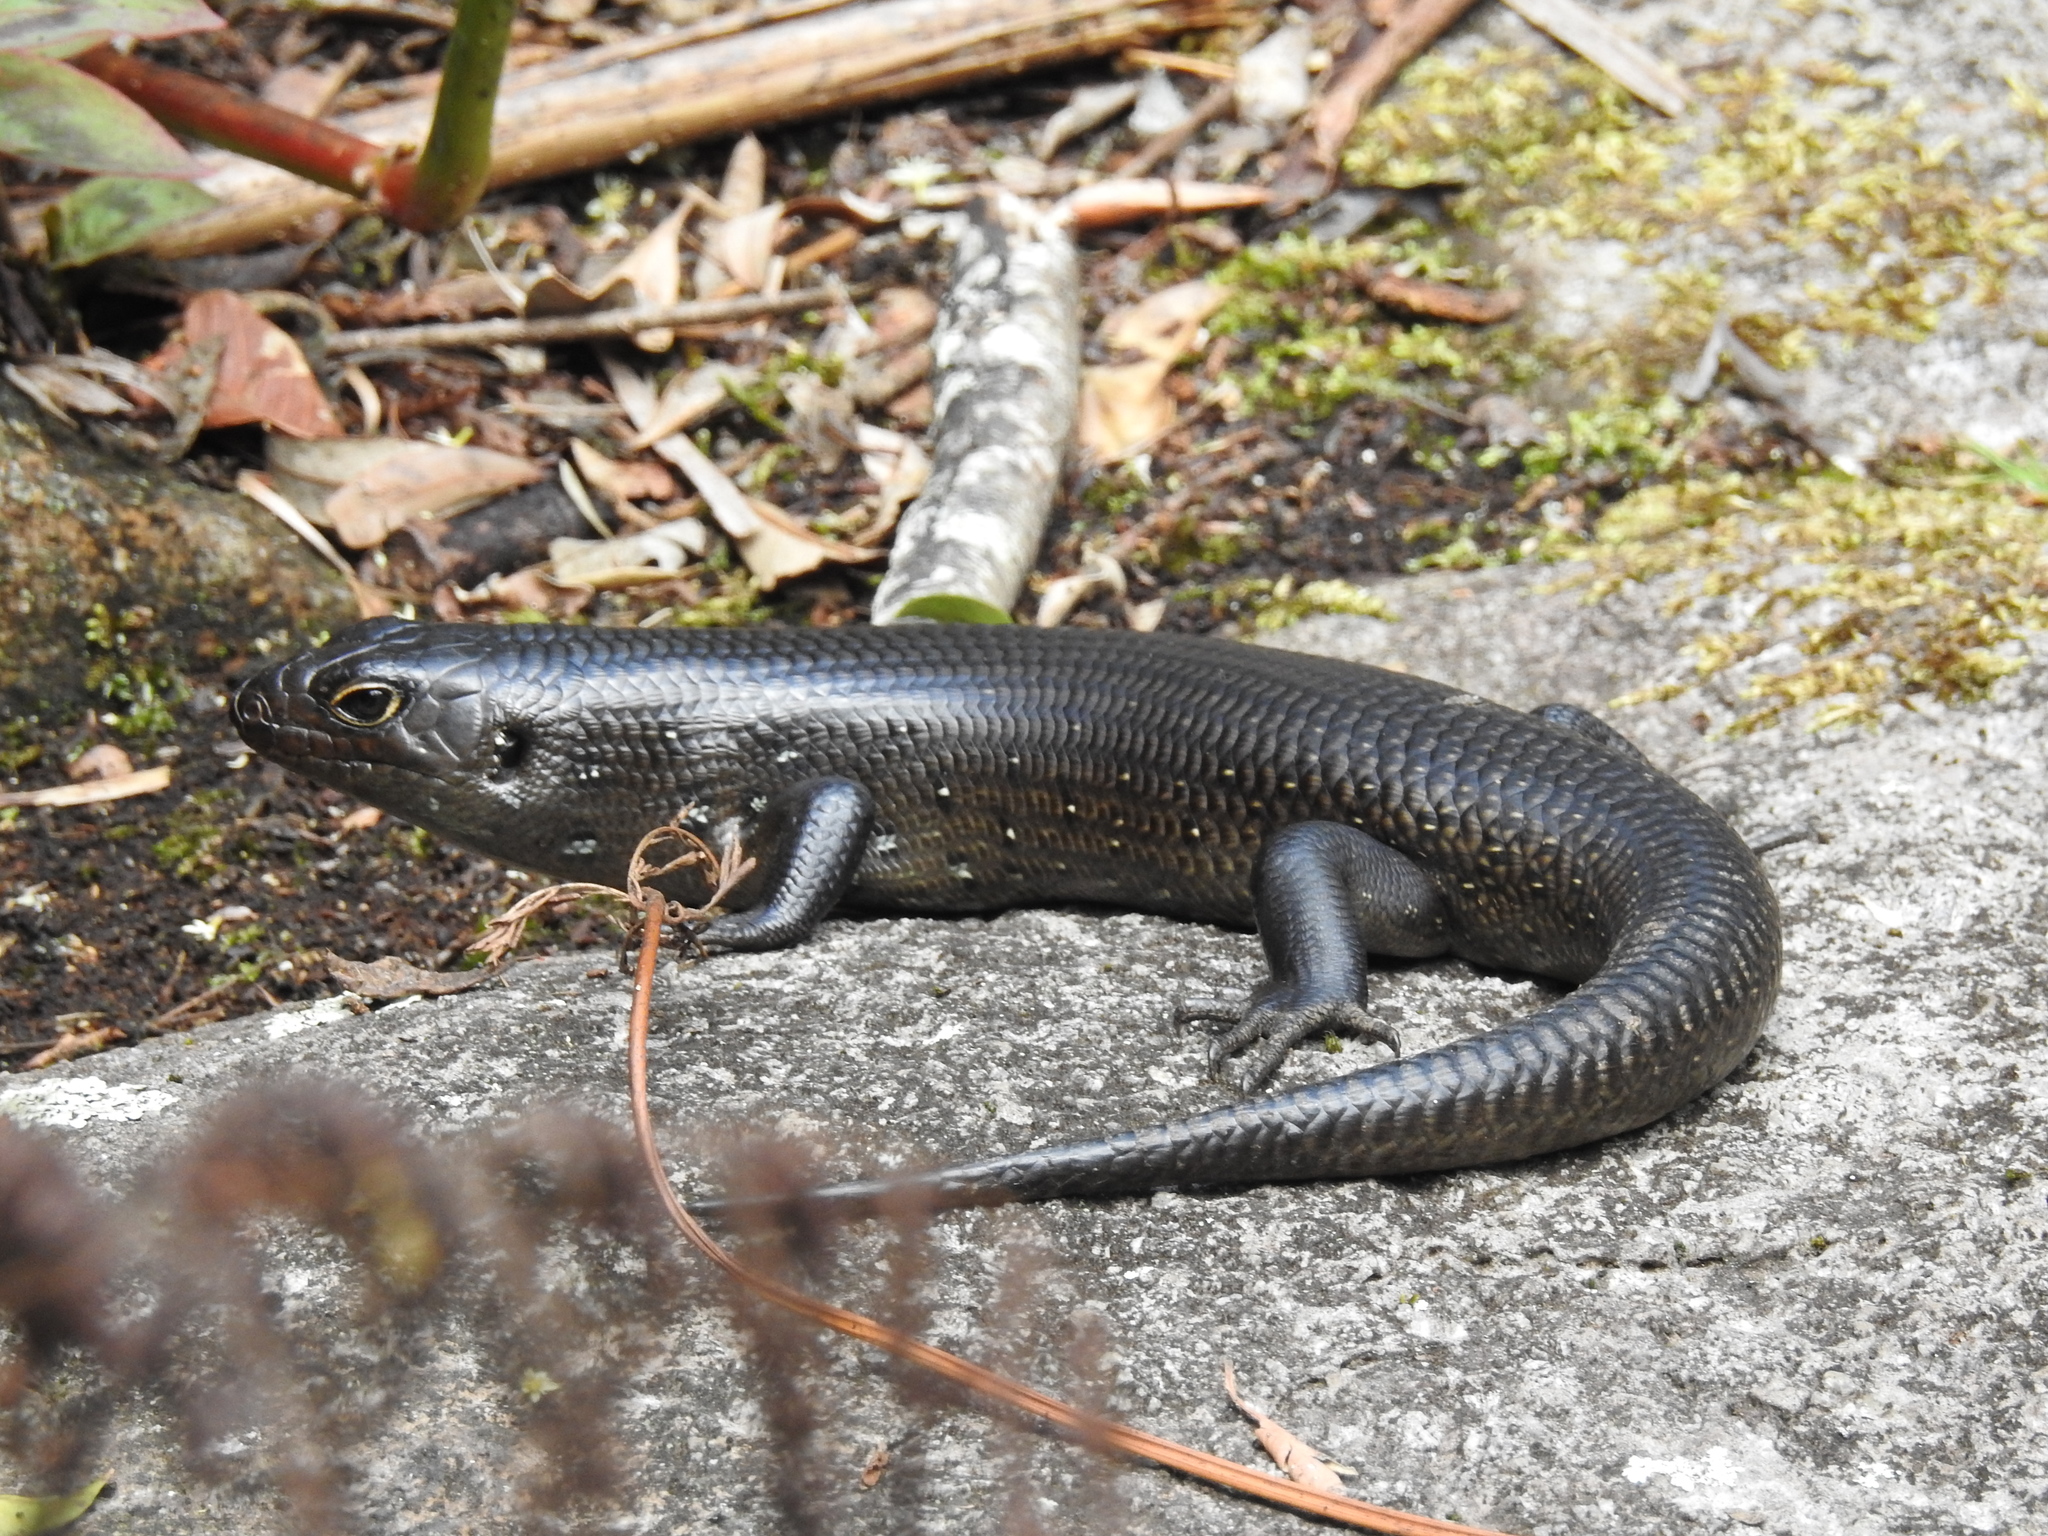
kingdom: Animalia
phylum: Chordata
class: Squamata
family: Scincidae
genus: Bellatorias
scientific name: Bellatorias major
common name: Land mullet
